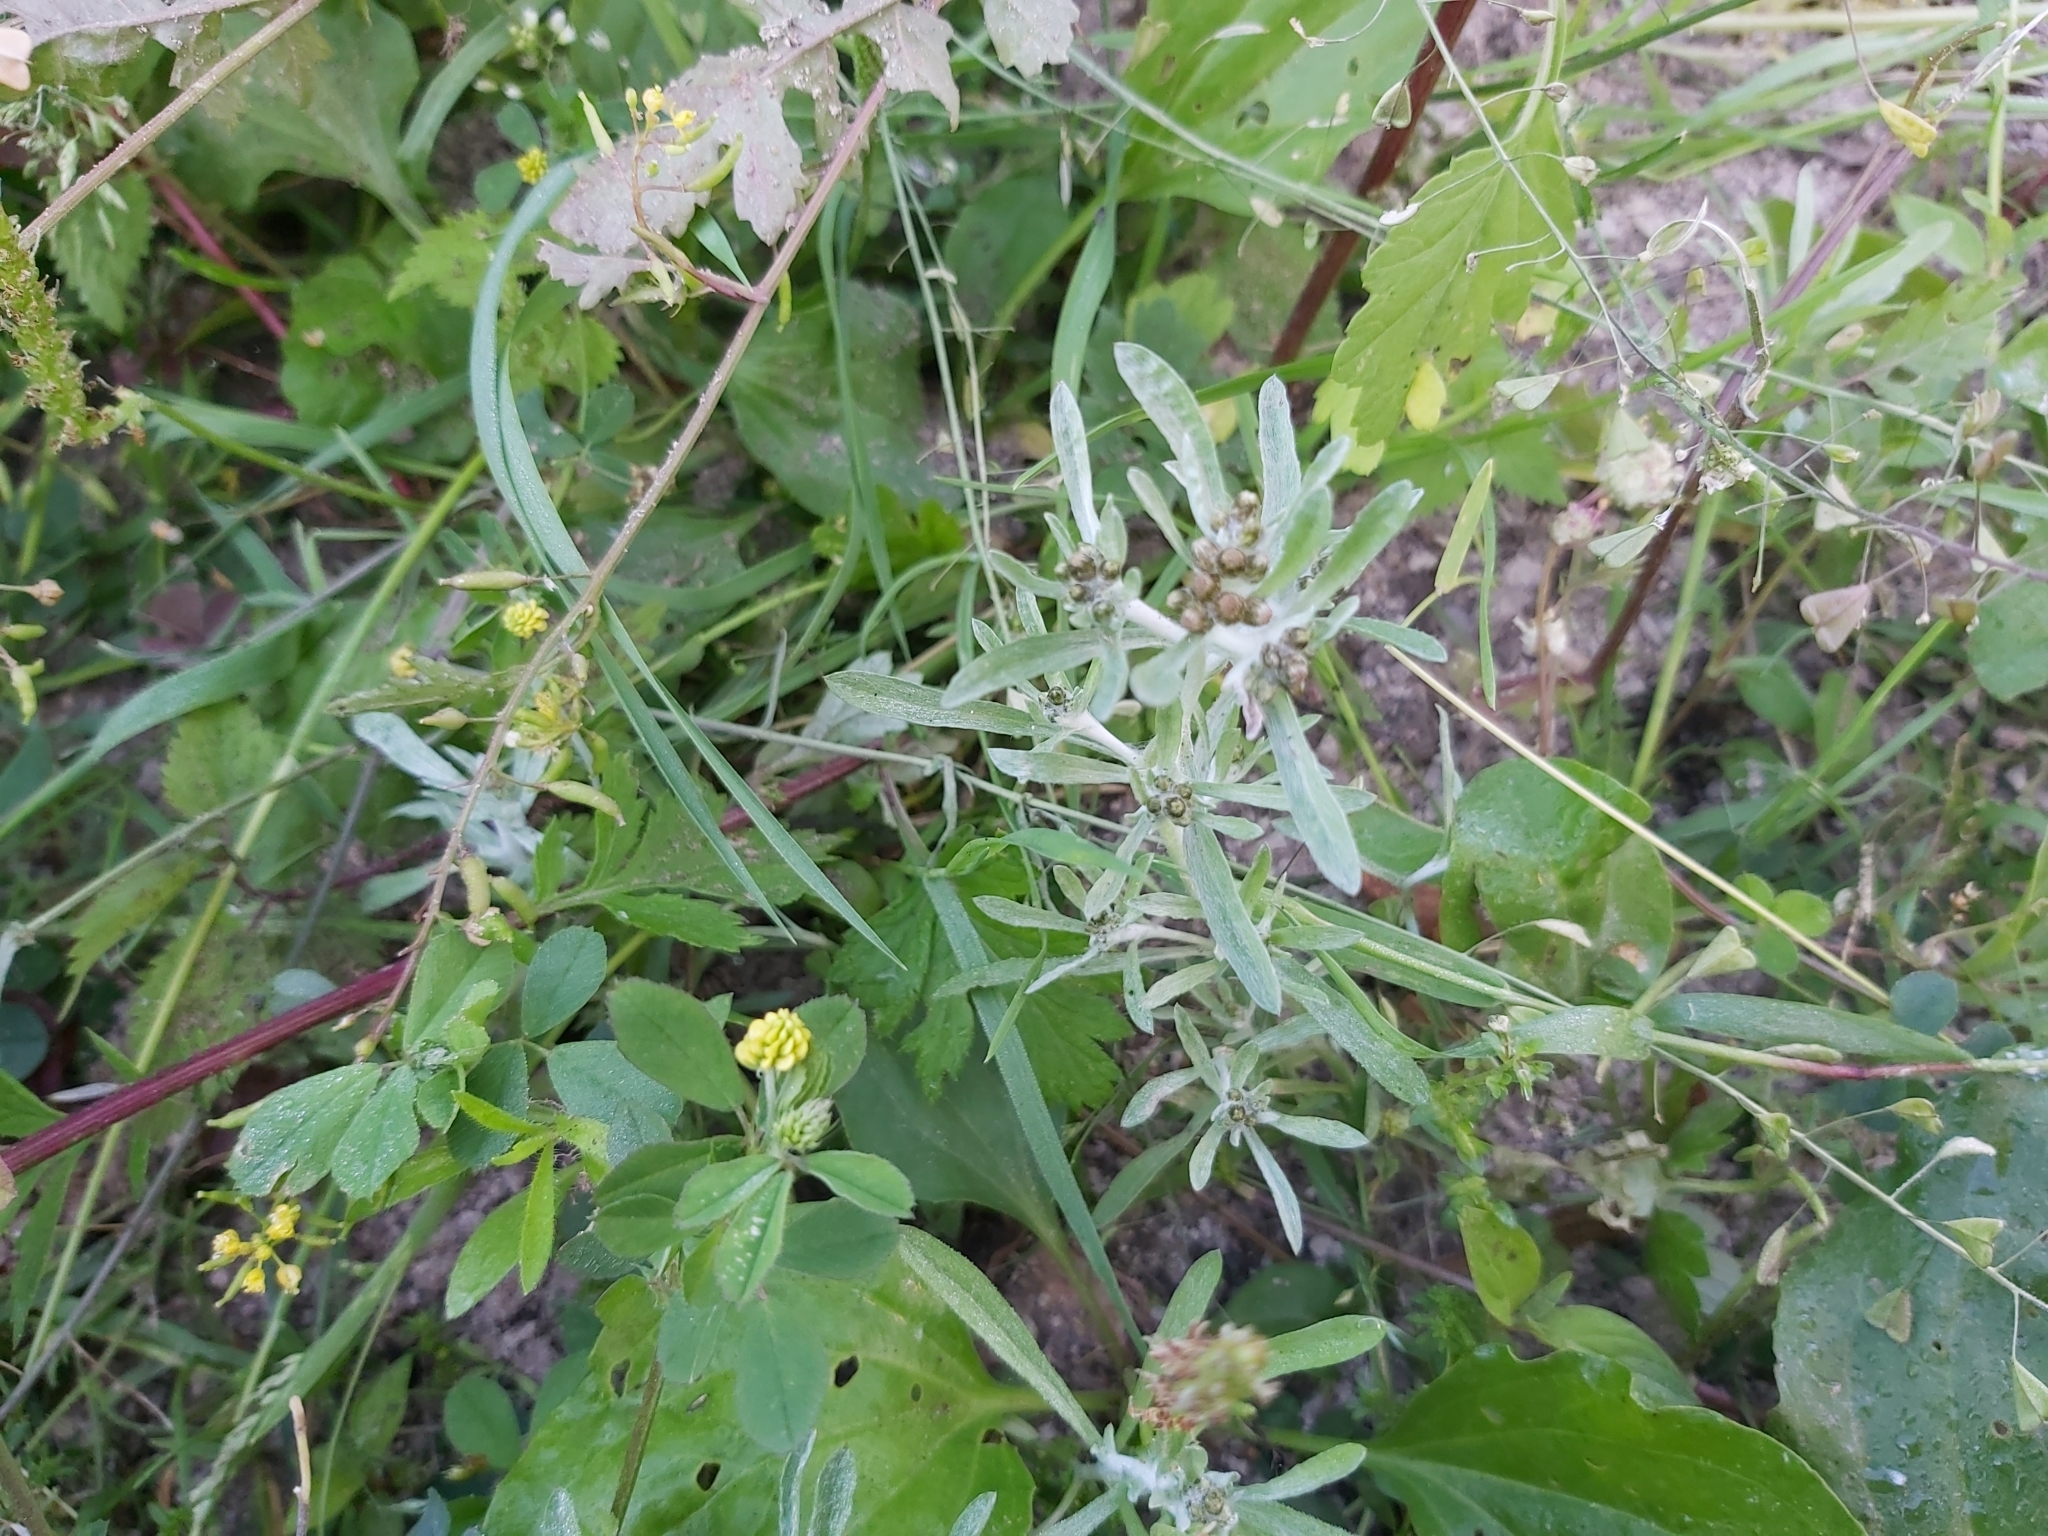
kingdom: Plantae
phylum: Tracheophyta
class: Magnoliopsida
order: Asterales
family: Asteraceae
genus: Gnaphalium
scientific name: Gnaphalium uliginosum
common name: Marsh cudweed
